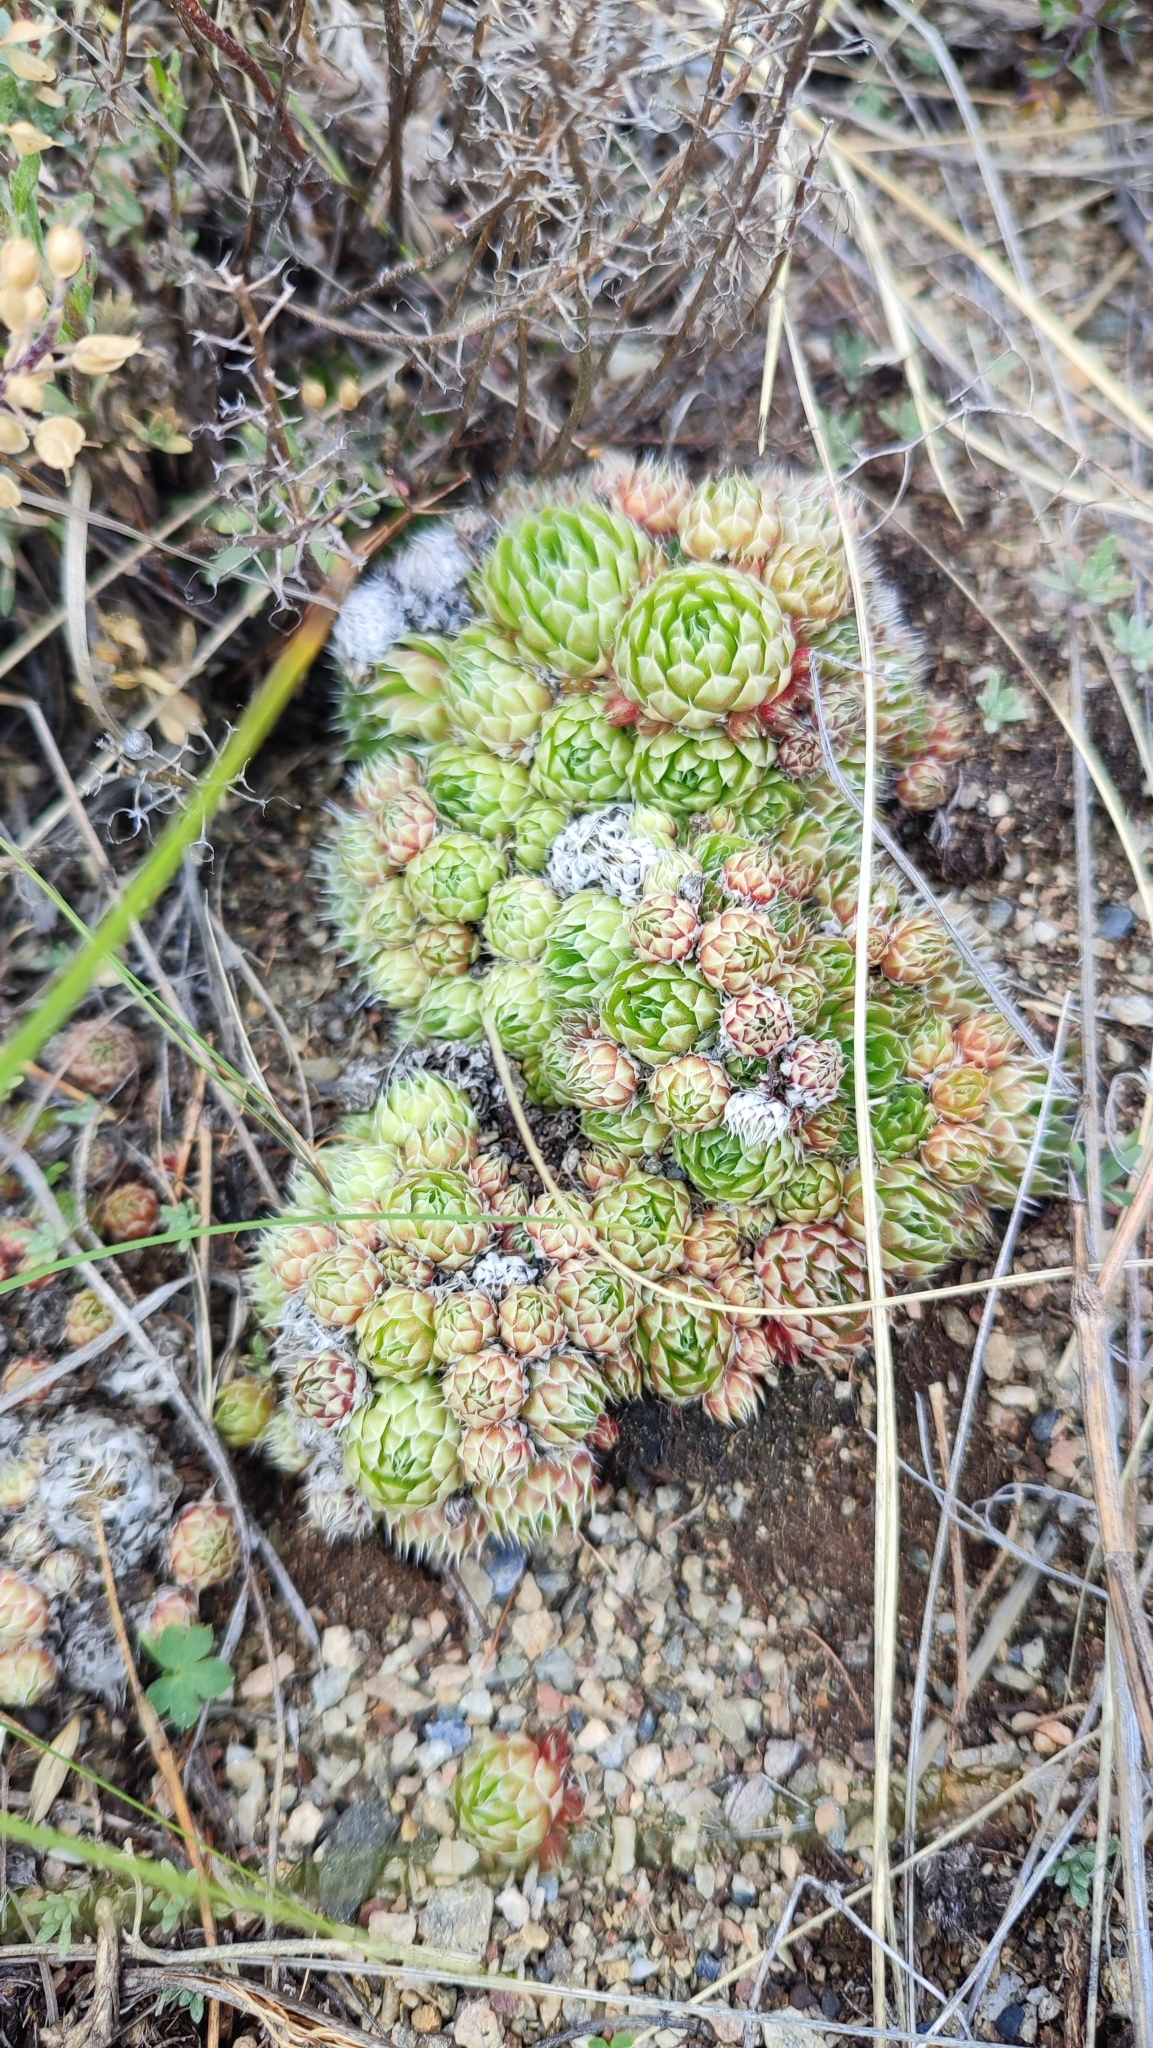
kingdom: Plantae
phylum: Tracheophyta
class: Magnoliopsida
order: Saxifragales
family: Crassulaceae
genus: Orostachys
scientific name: Orostachys spinosa
